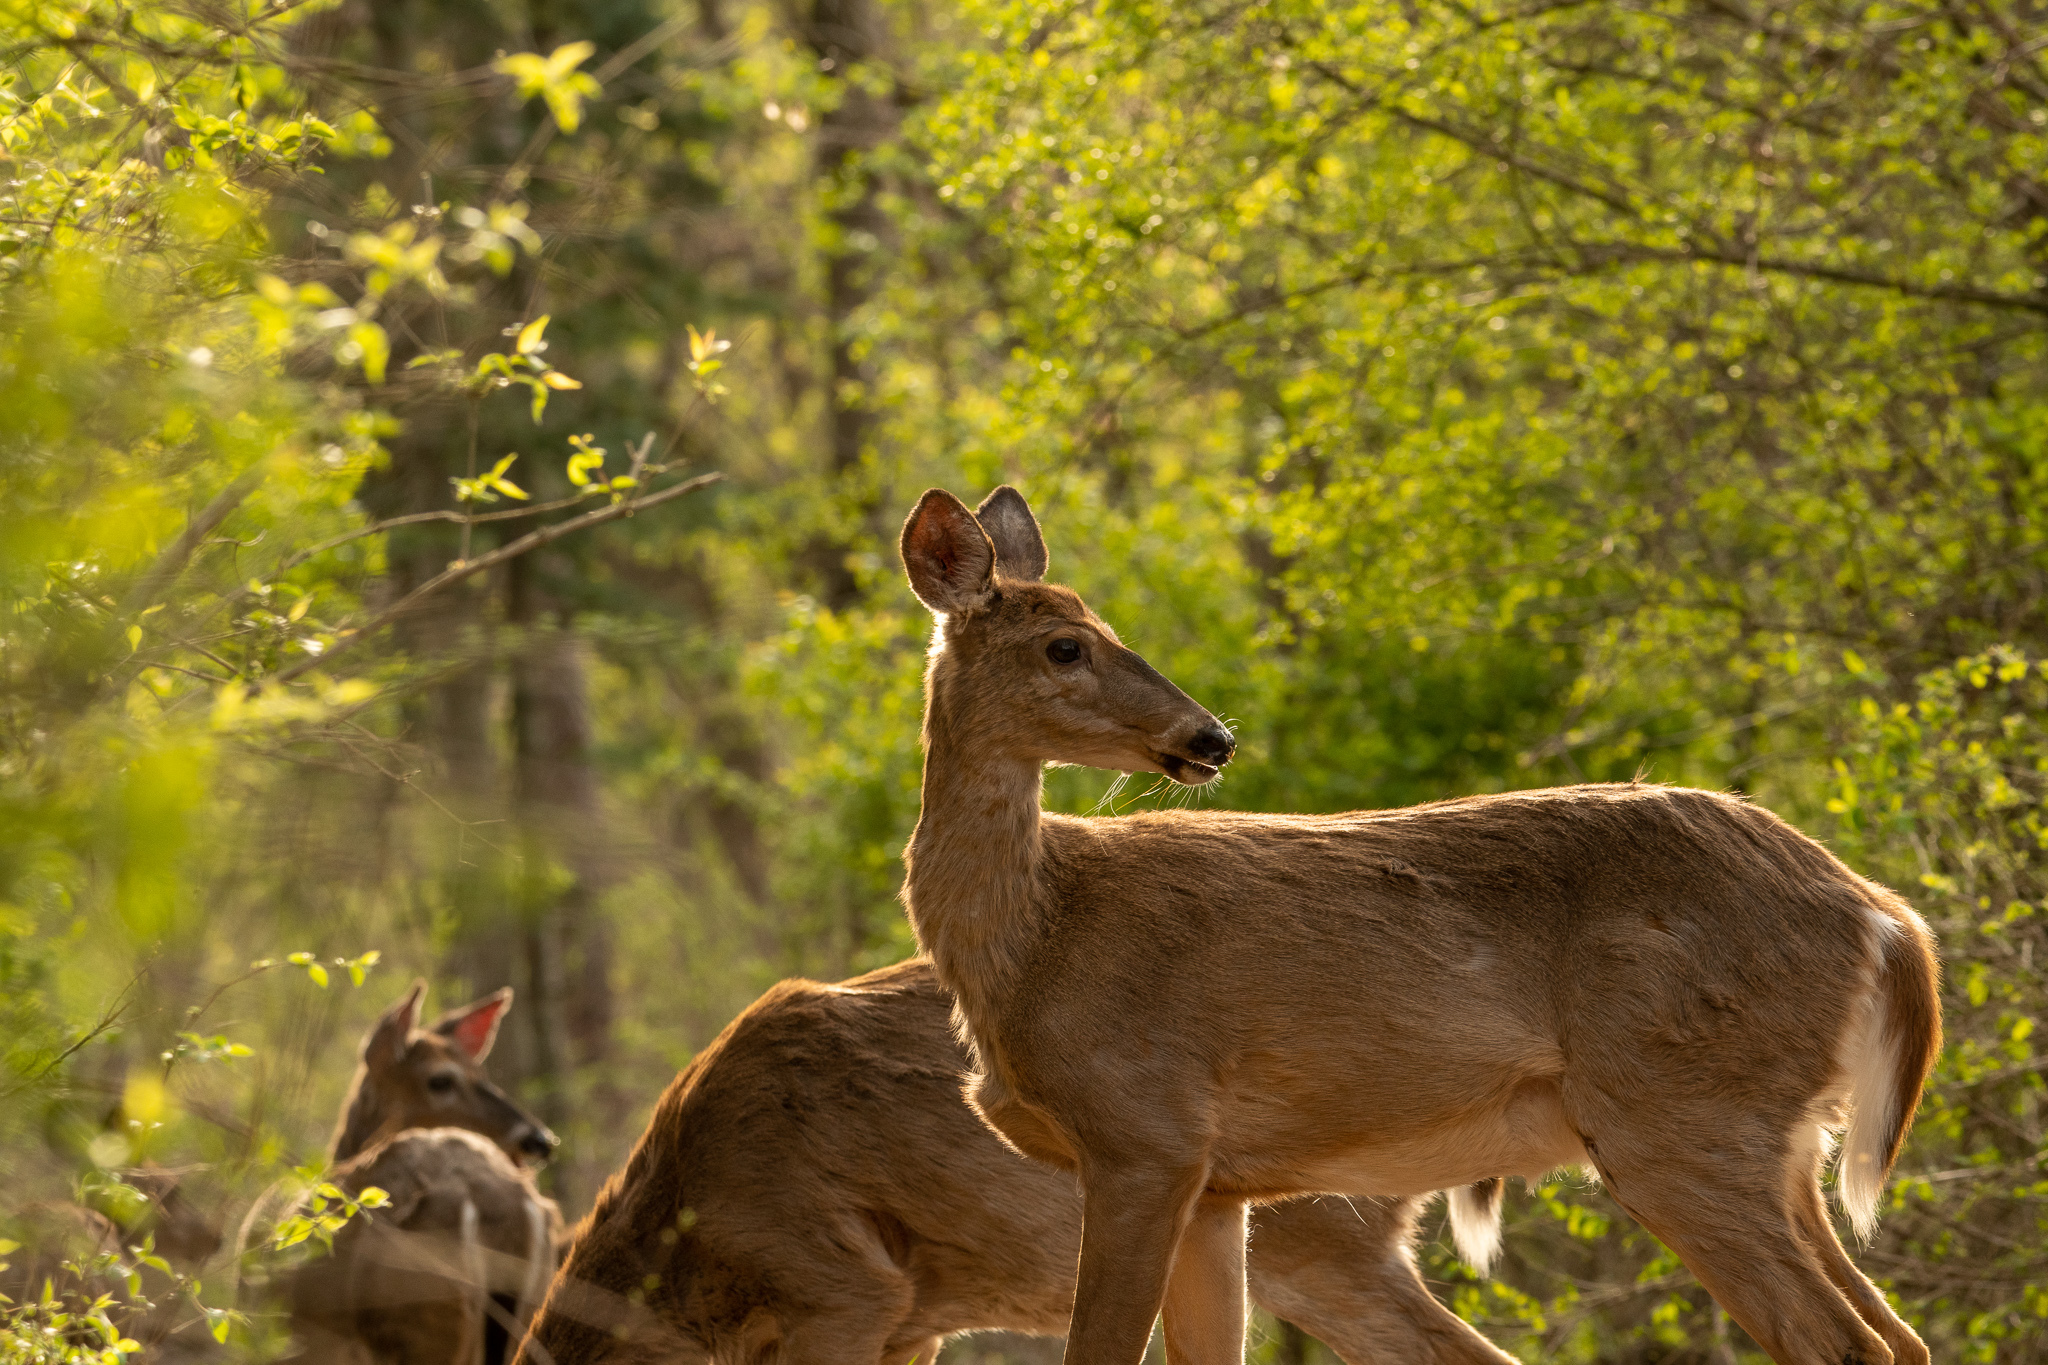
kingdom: Animalia
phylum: Chordata
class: Mammalia
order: Artiodactyla
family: Cervidae
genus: Odocoileus
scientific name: Odocoileus virginianus
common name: White-tailed deer
